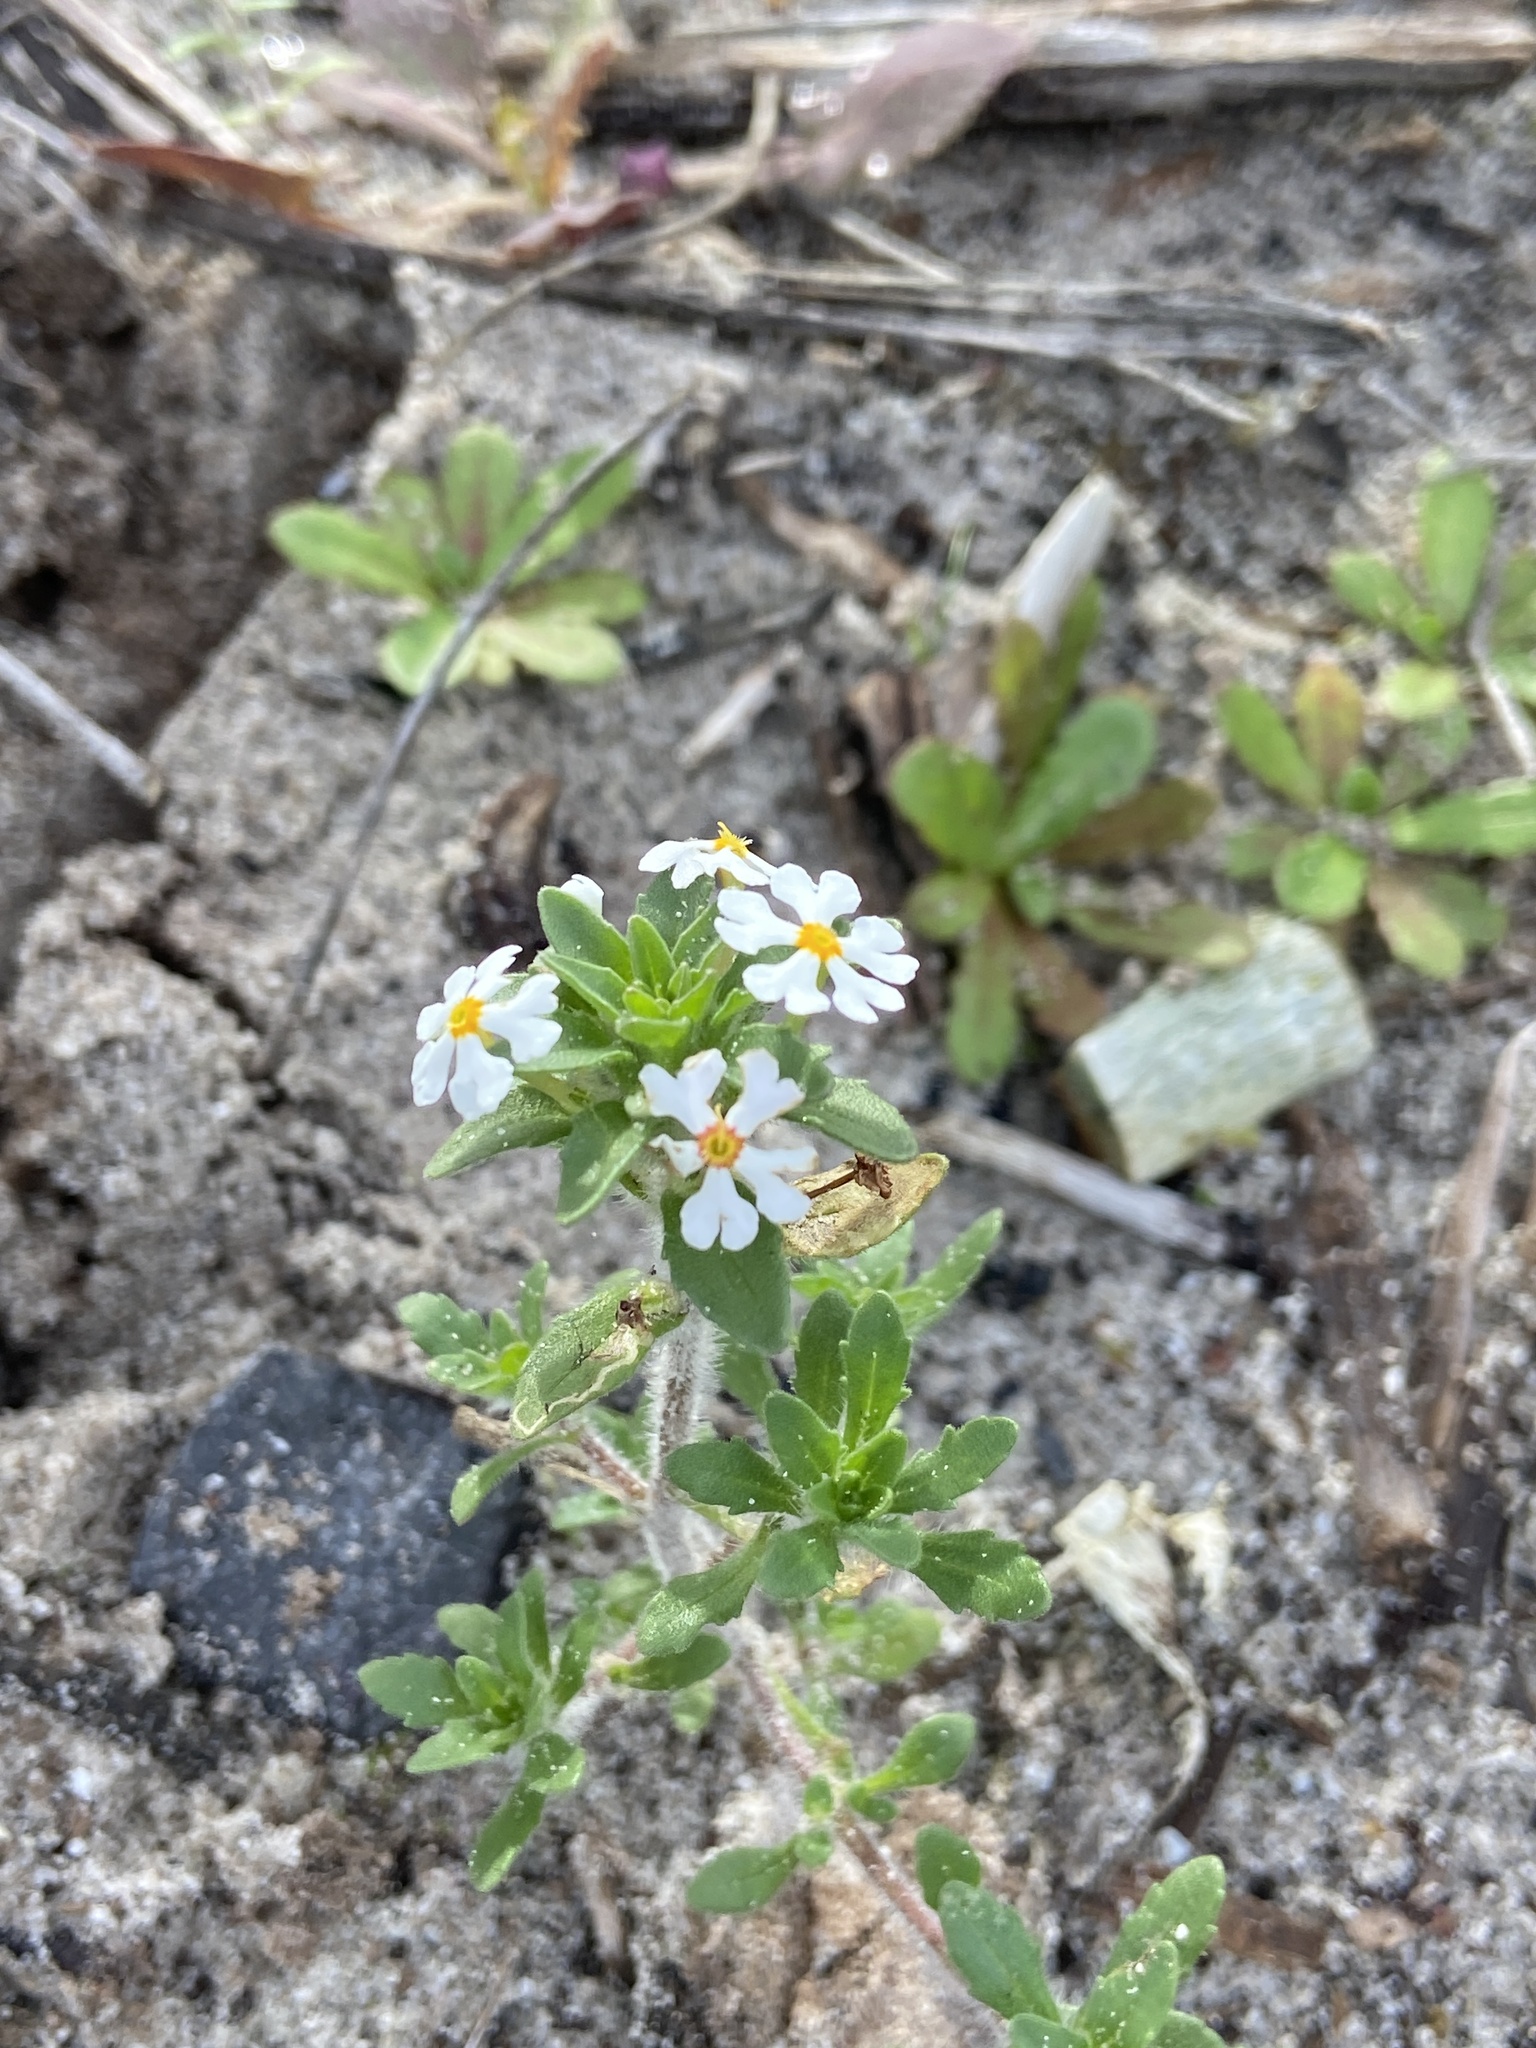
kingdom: Plantae
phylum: Tracheophyta
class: Magnoliopsida
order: Lamiales
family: Scrophulariaceae
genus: Zaluzianskya
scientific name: Zaluzianskya villosa
